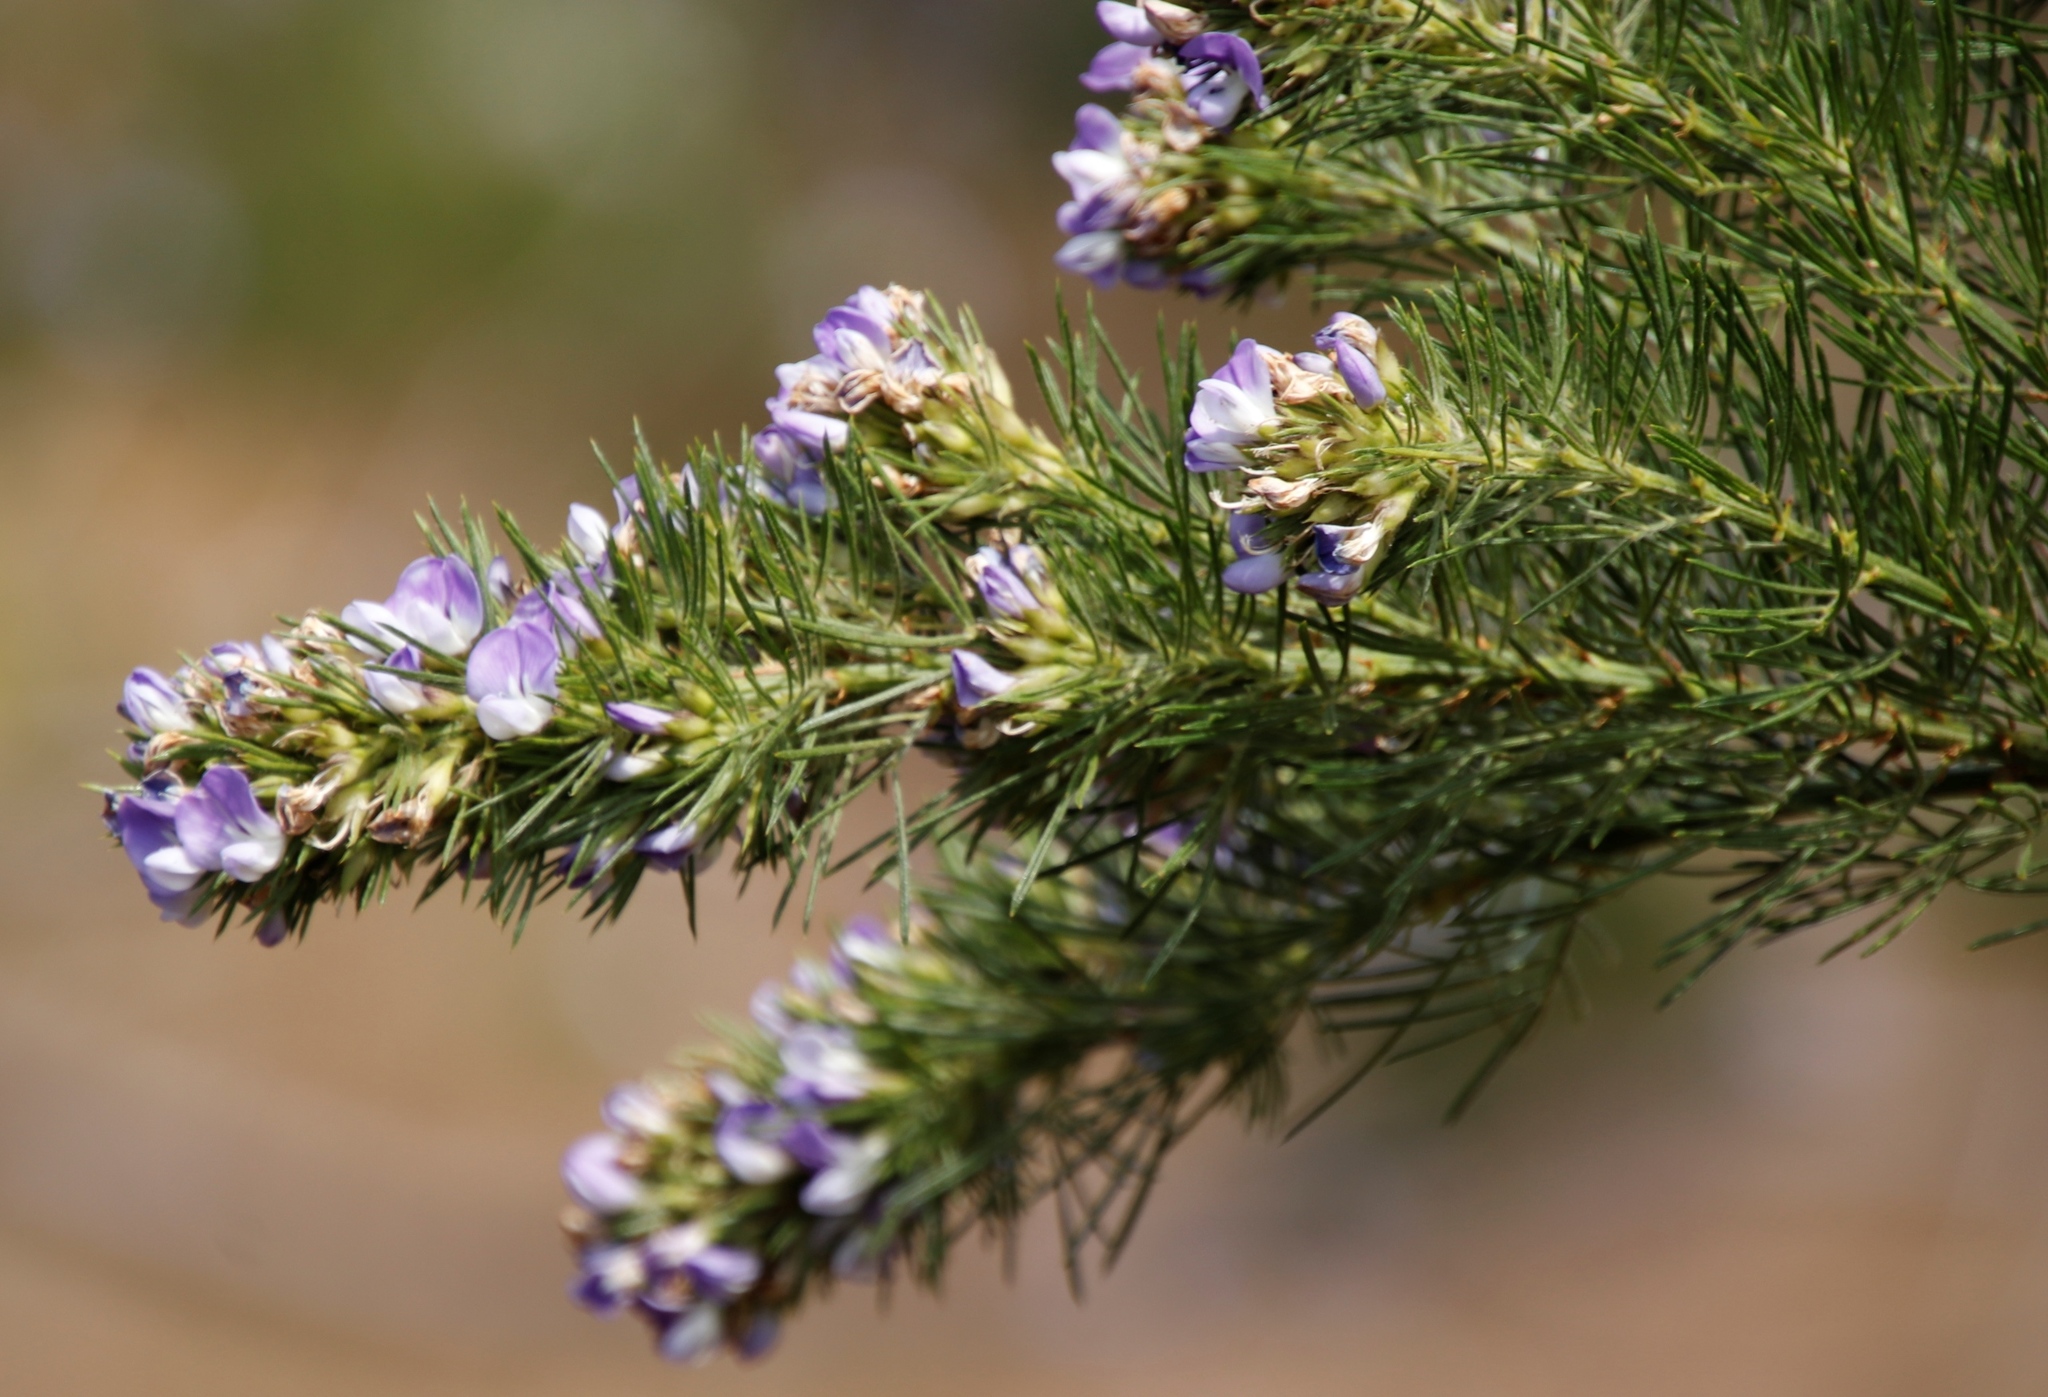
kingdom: Plantae
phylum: Tracheophyta
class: Magnoliopsida
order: Fabales
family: Fabaceae
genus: Psoralea
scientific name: Psoralea pinnata
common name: African scurfpea
